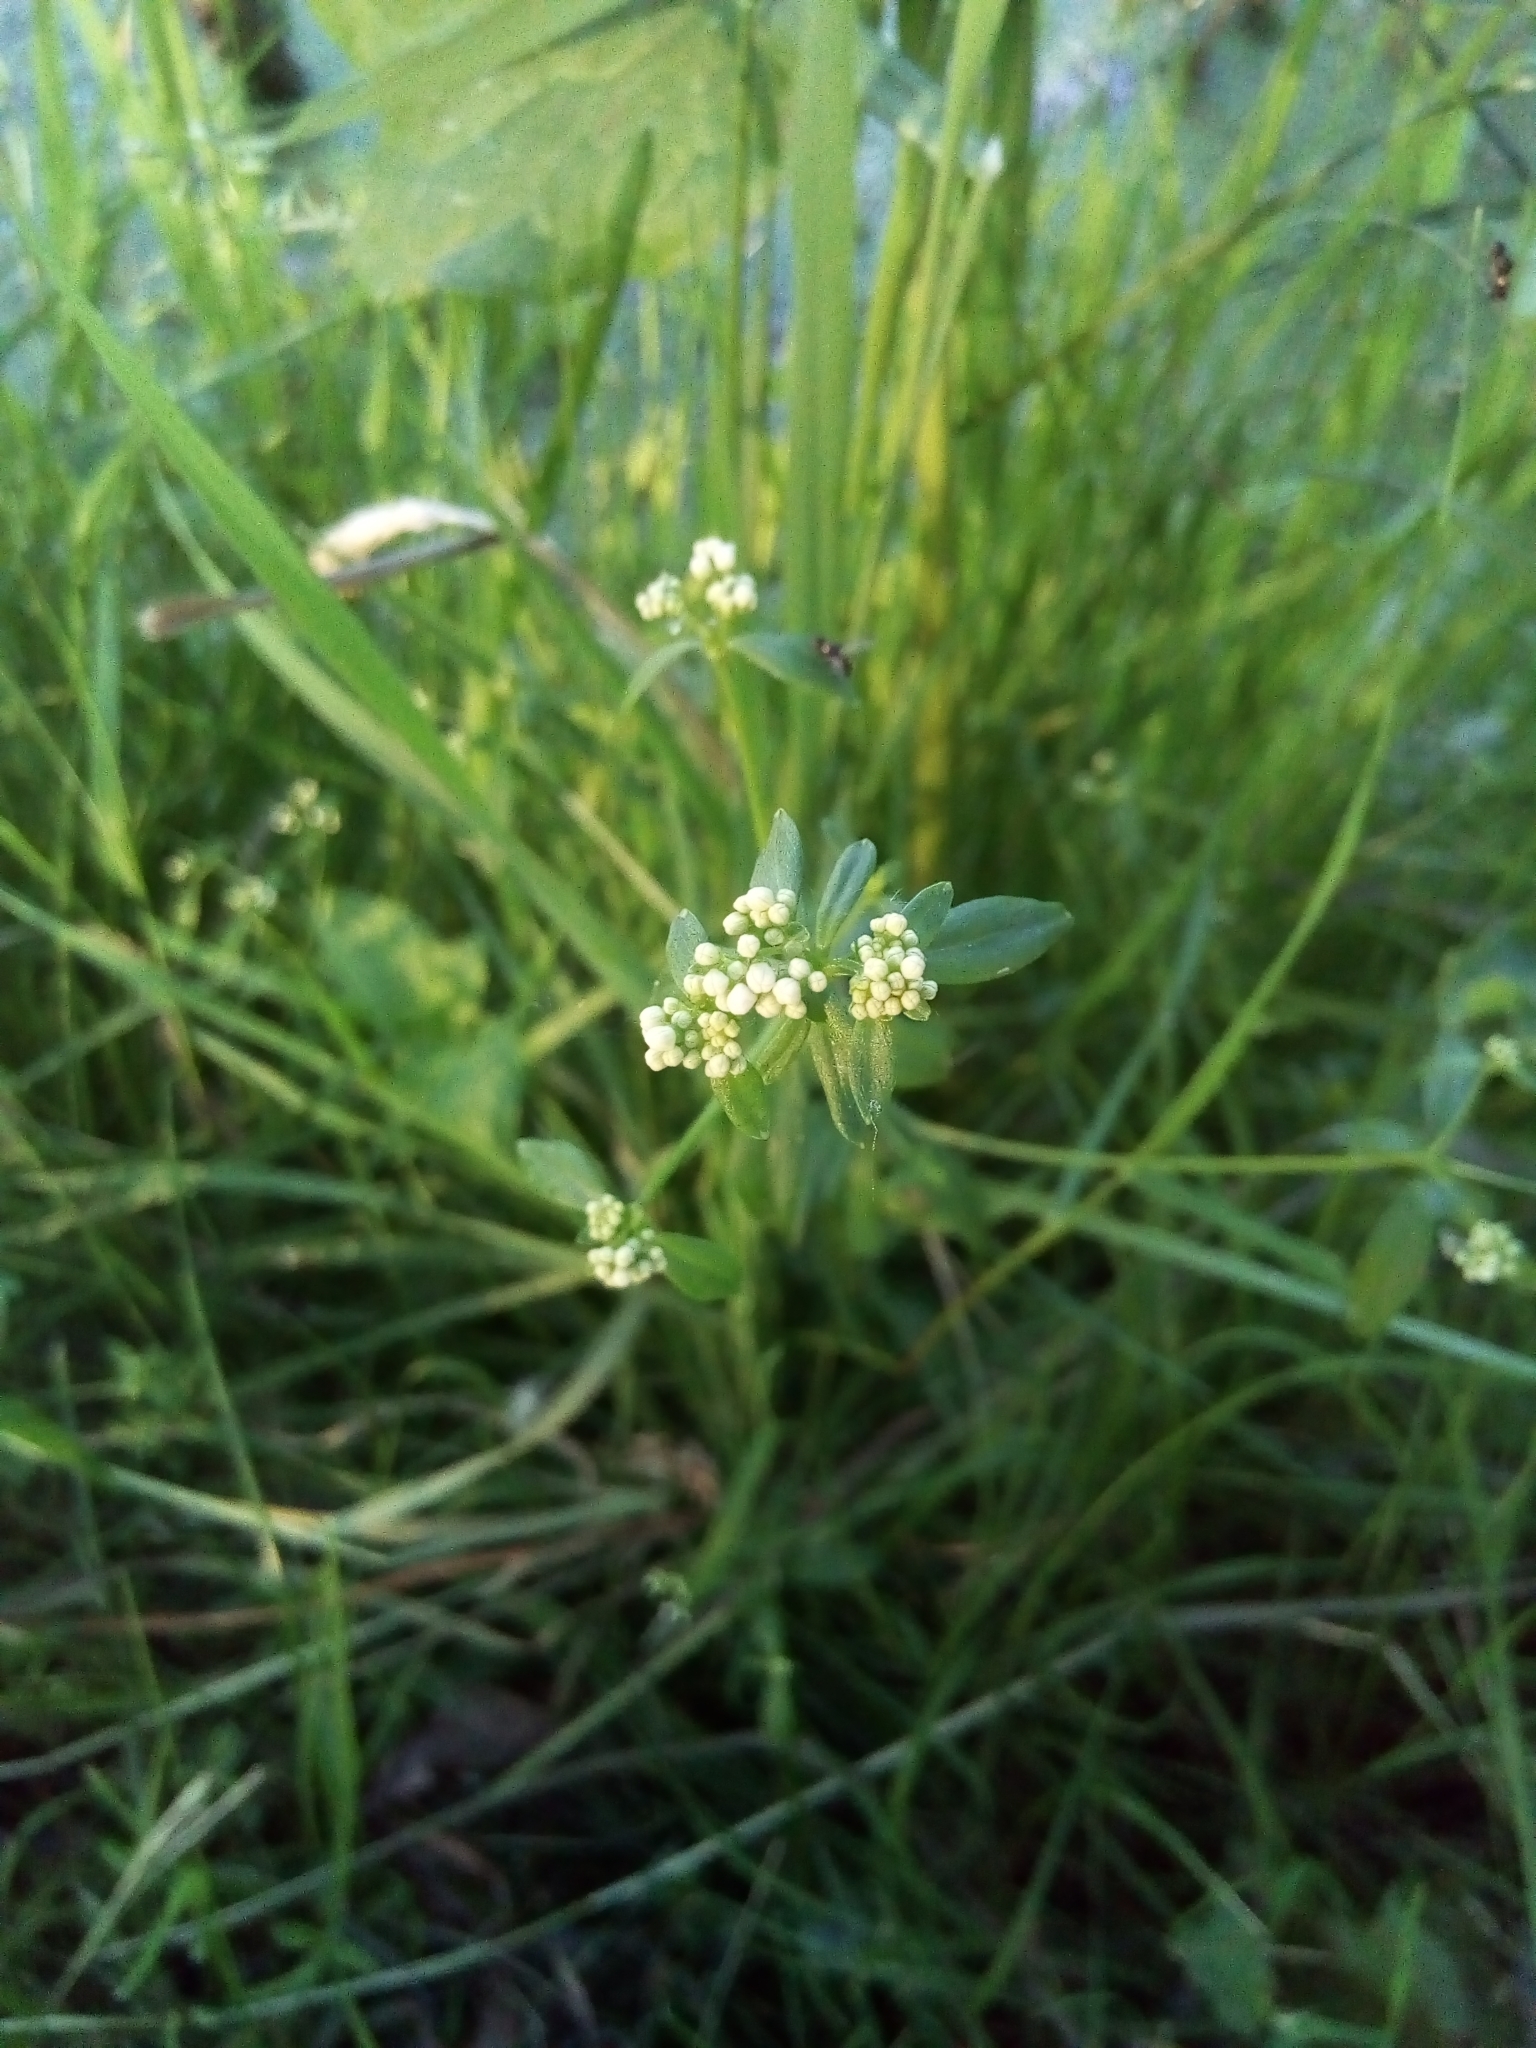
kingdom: Plantae
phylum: Tracheophyta
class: Magnoliopsida
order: Gentianales
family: Rubiaceae
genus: Galium
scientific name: Galium palustre
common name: Common marsh-bedstraw
